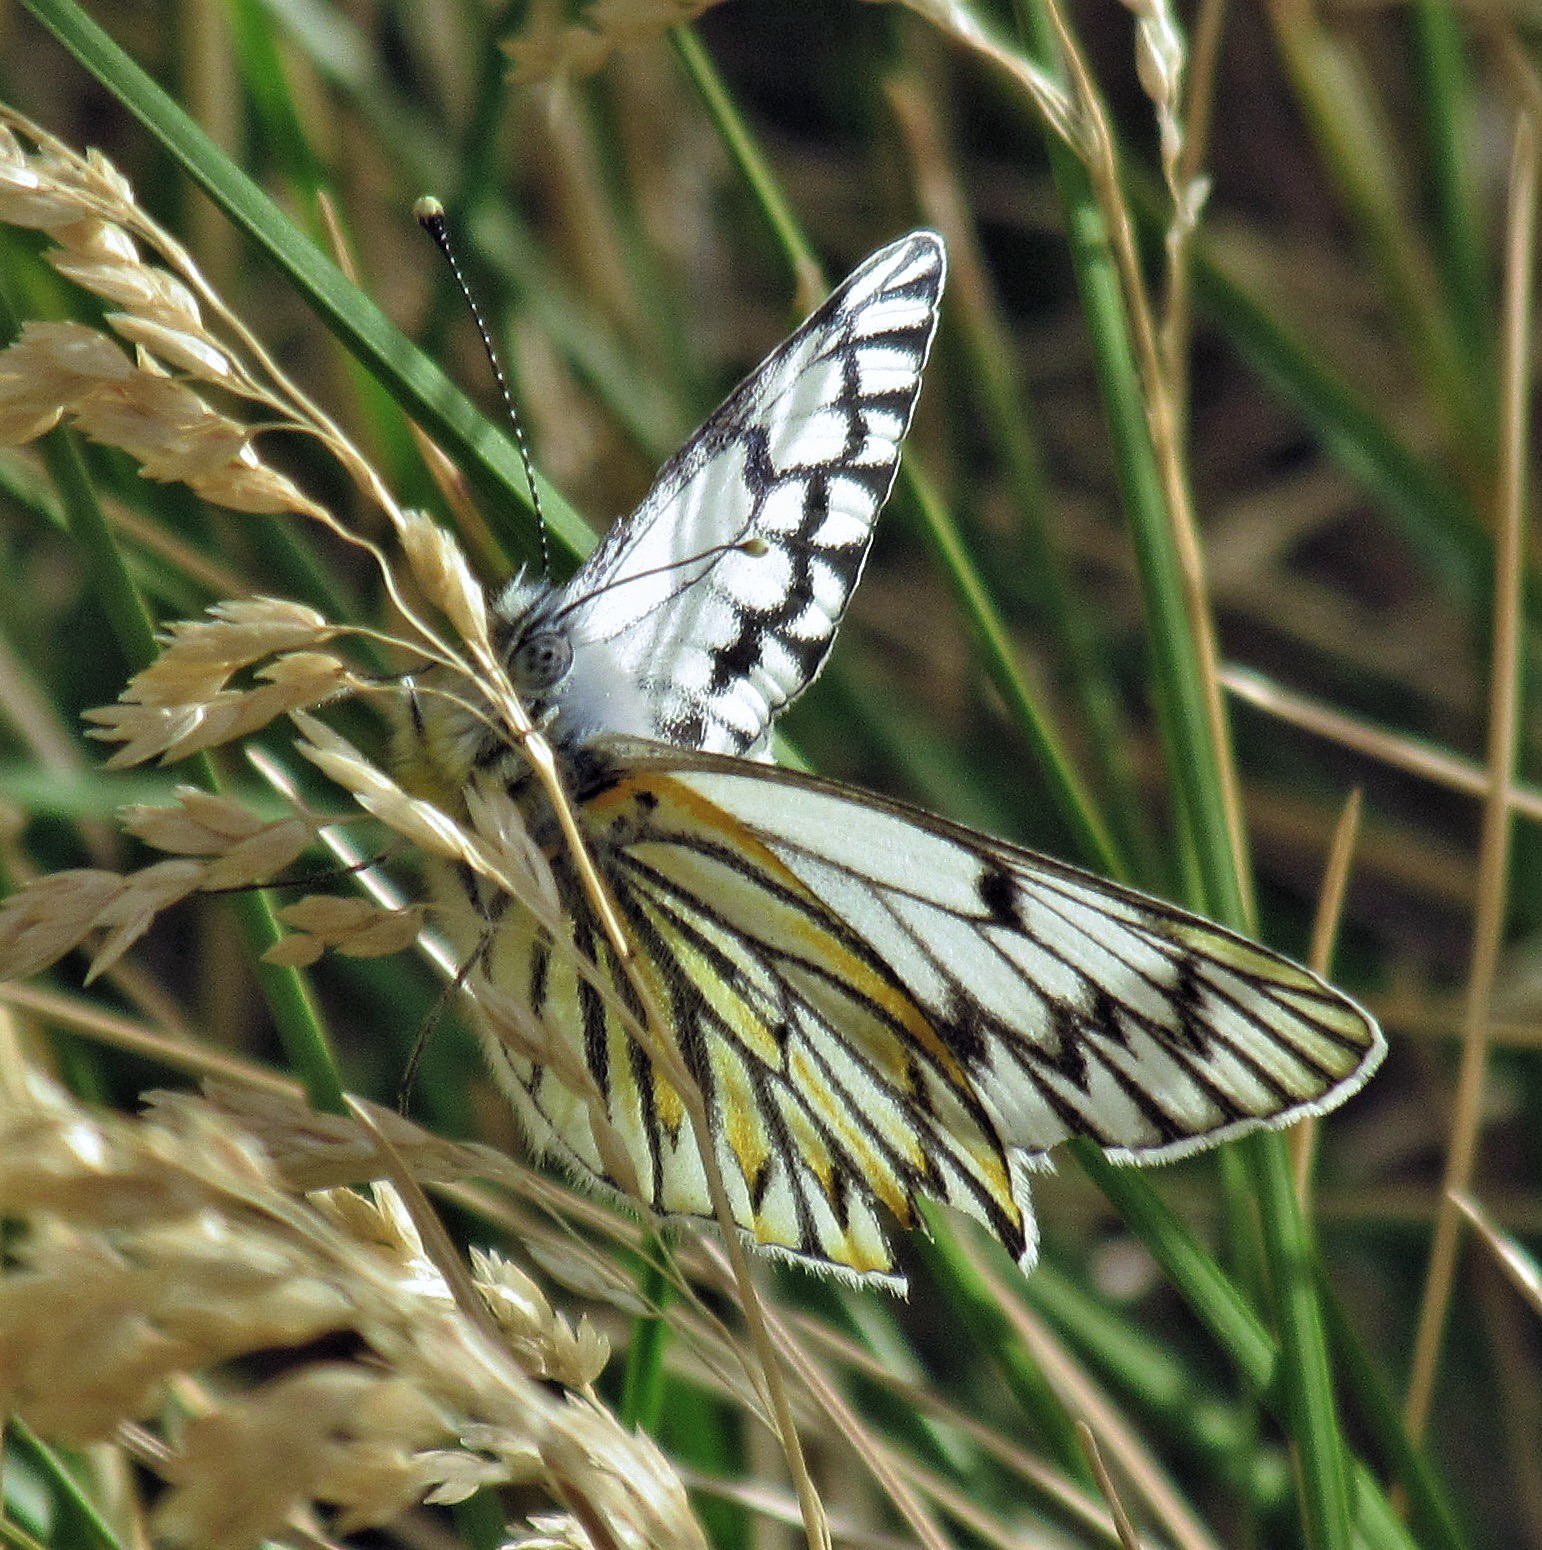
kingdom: Animalia
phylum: Arthropoda
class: Insecta
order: Lepidoptera
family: Pieridae
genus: Tatochila
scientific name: Tatochila theodice
